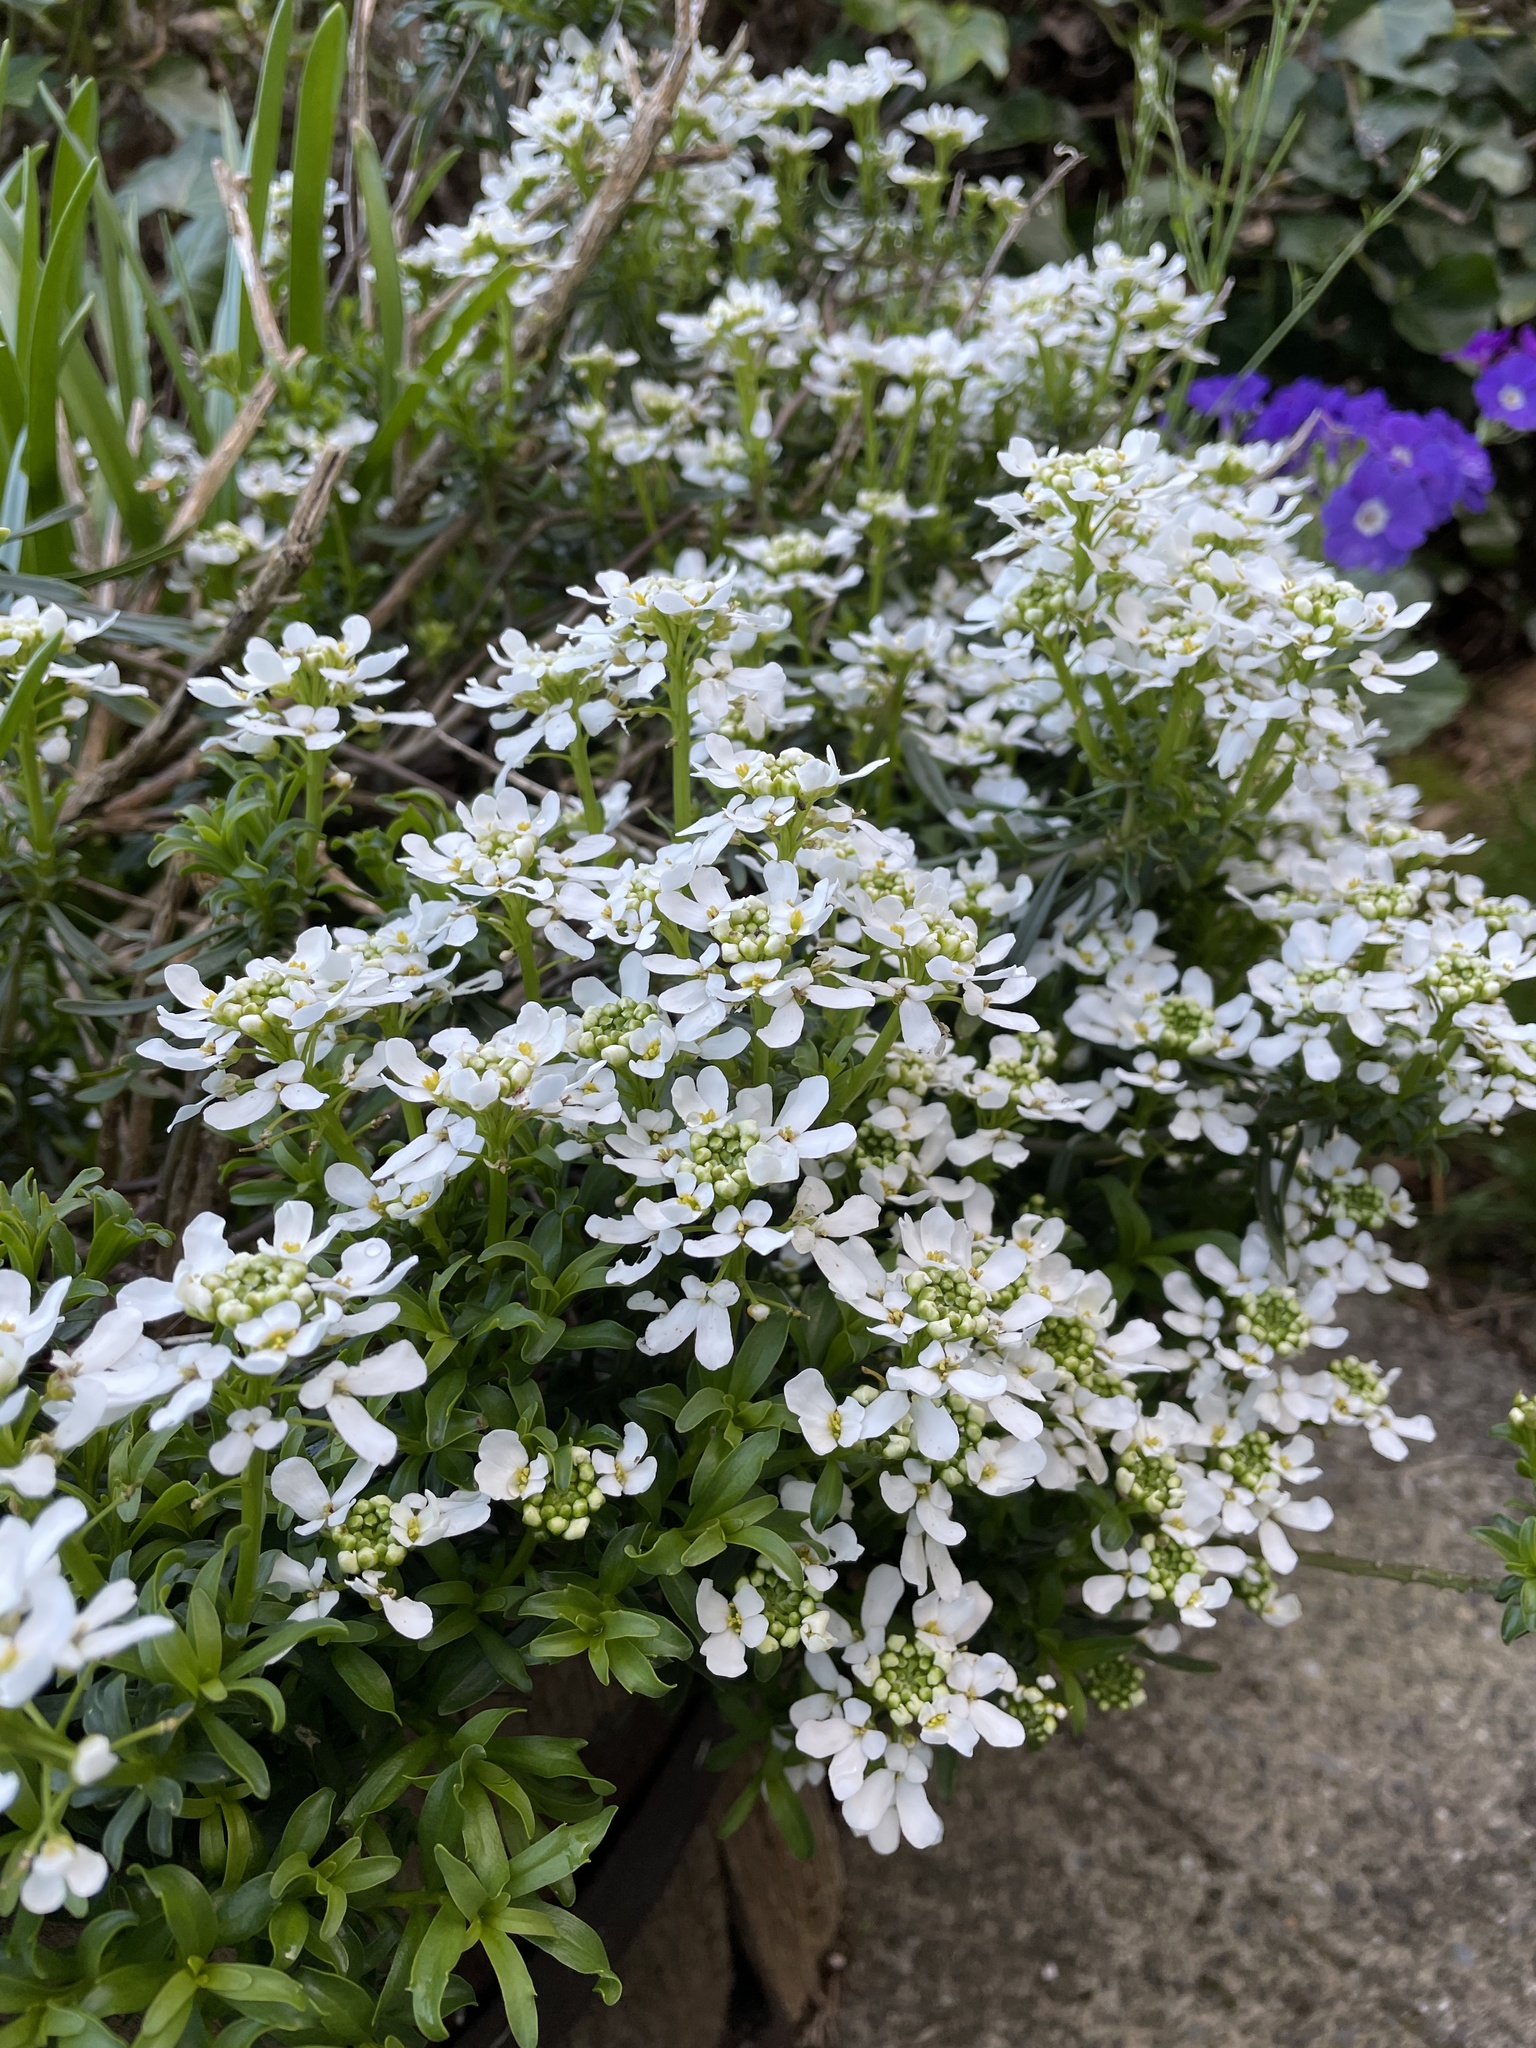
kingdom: Plantae
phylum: Tracheophyta
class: Magnoliopsida
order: Brassicales
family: Brassicaceae
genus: Iberis
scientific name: Iberis sempervirens
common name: Evergreen candytuft
